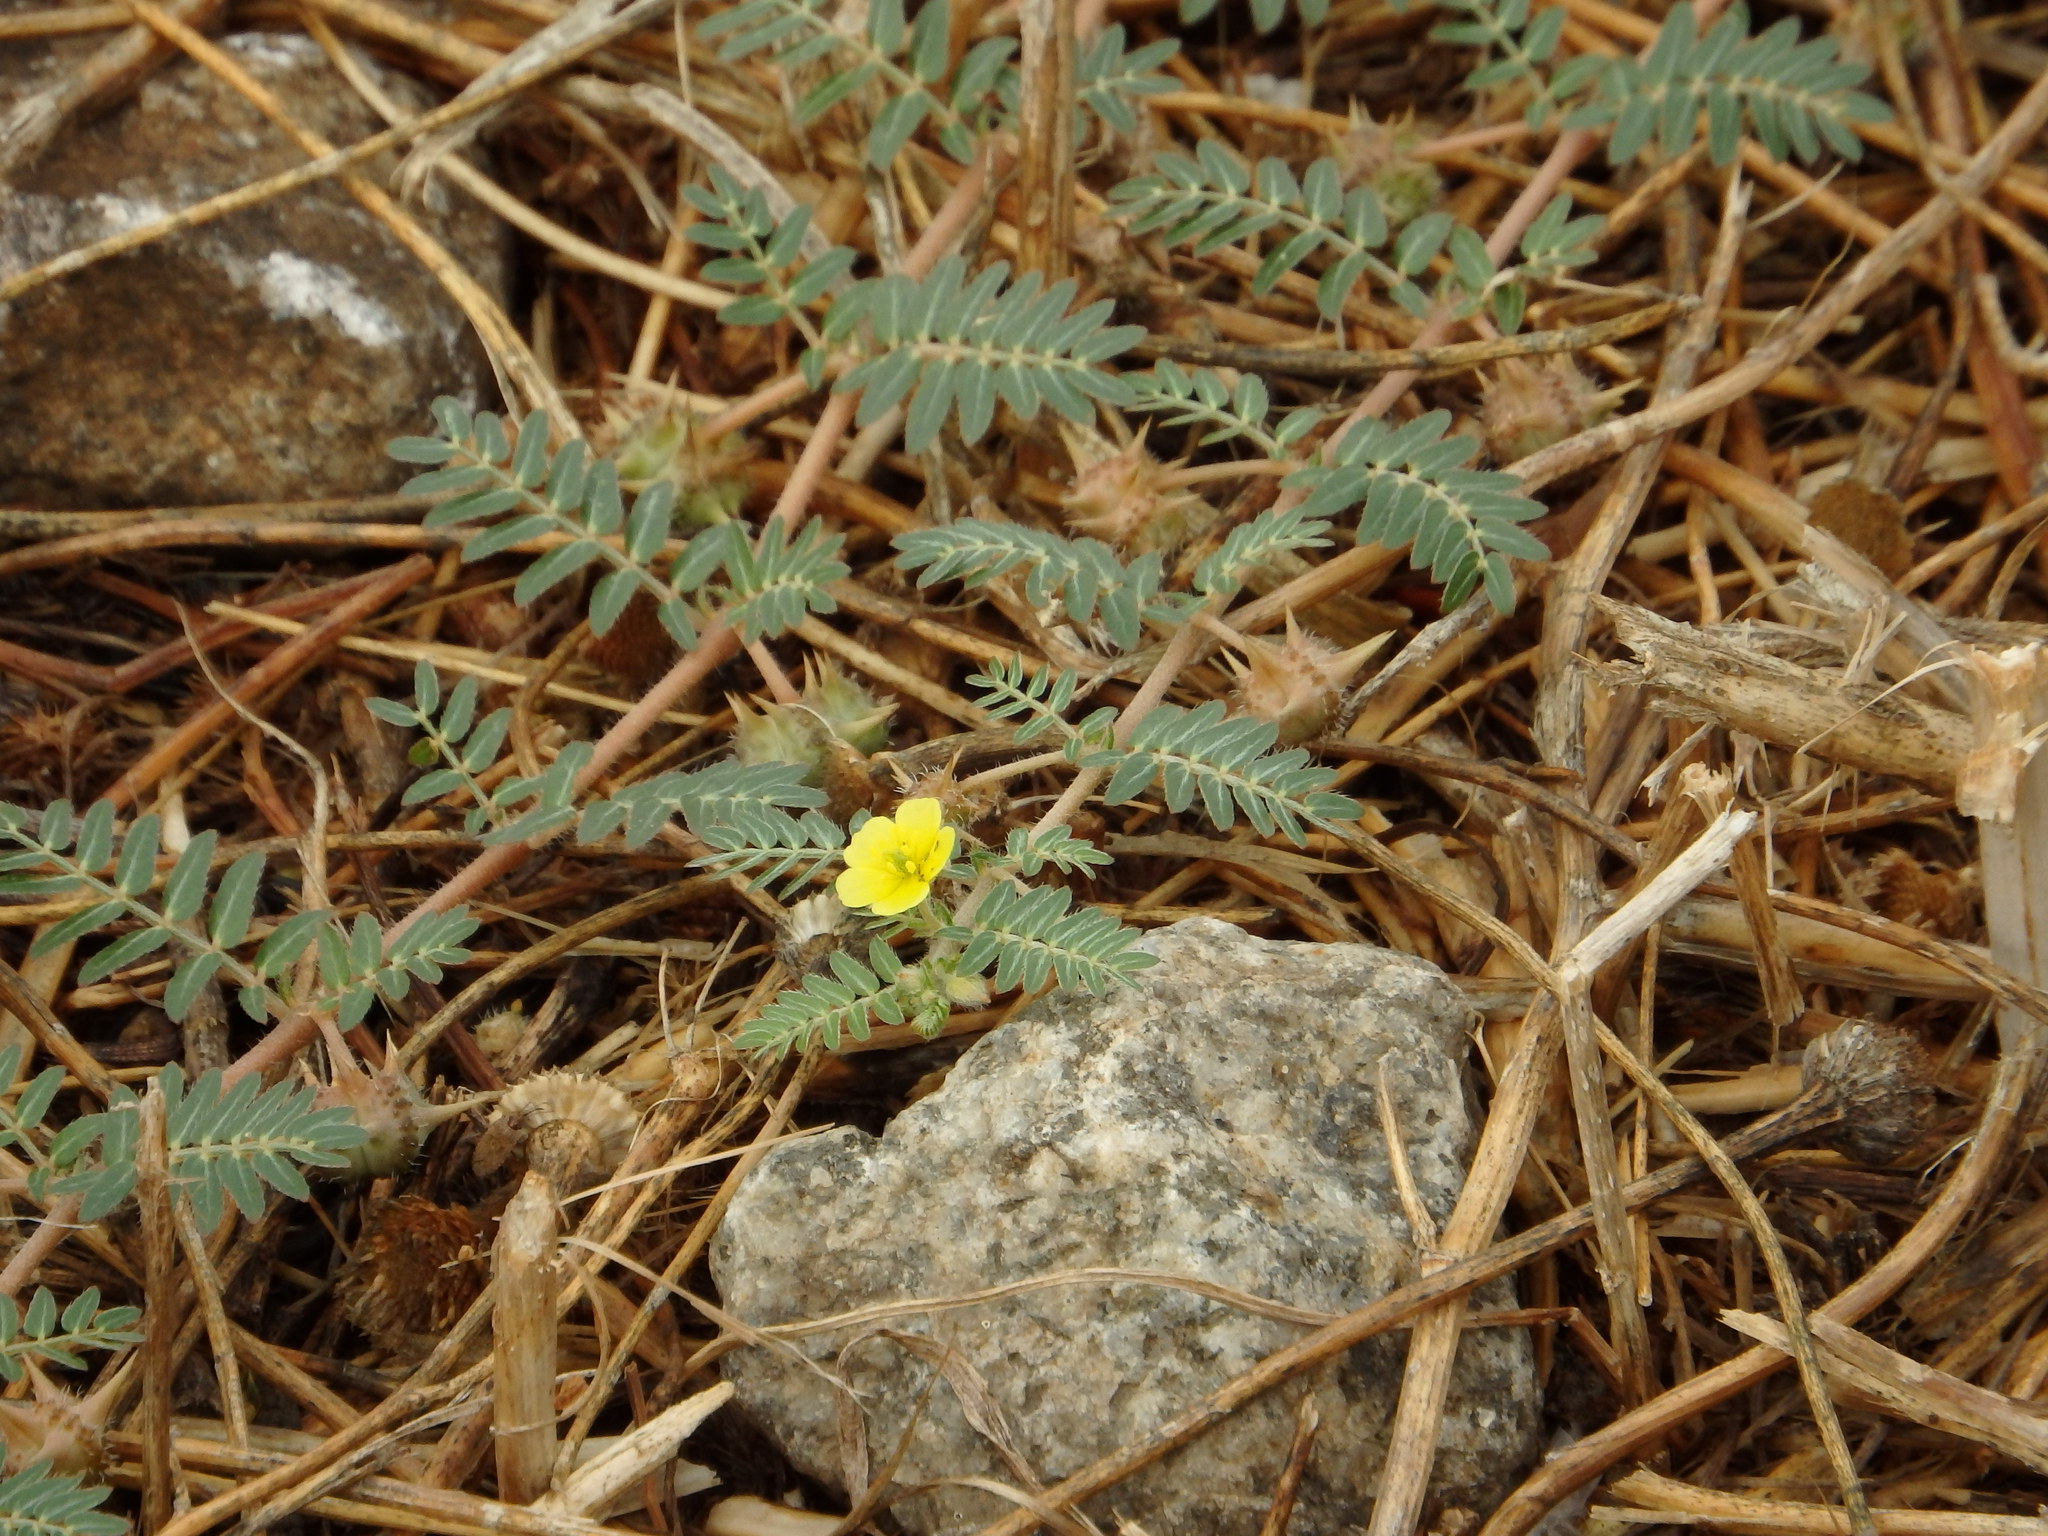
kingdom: Plantae
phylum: Tracheophyta
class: Magnoliopsida
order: Zygophyllales
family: Zygophyllaceae
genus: Tribulus
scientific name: Tribulus terrestris
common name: Puncturevine
